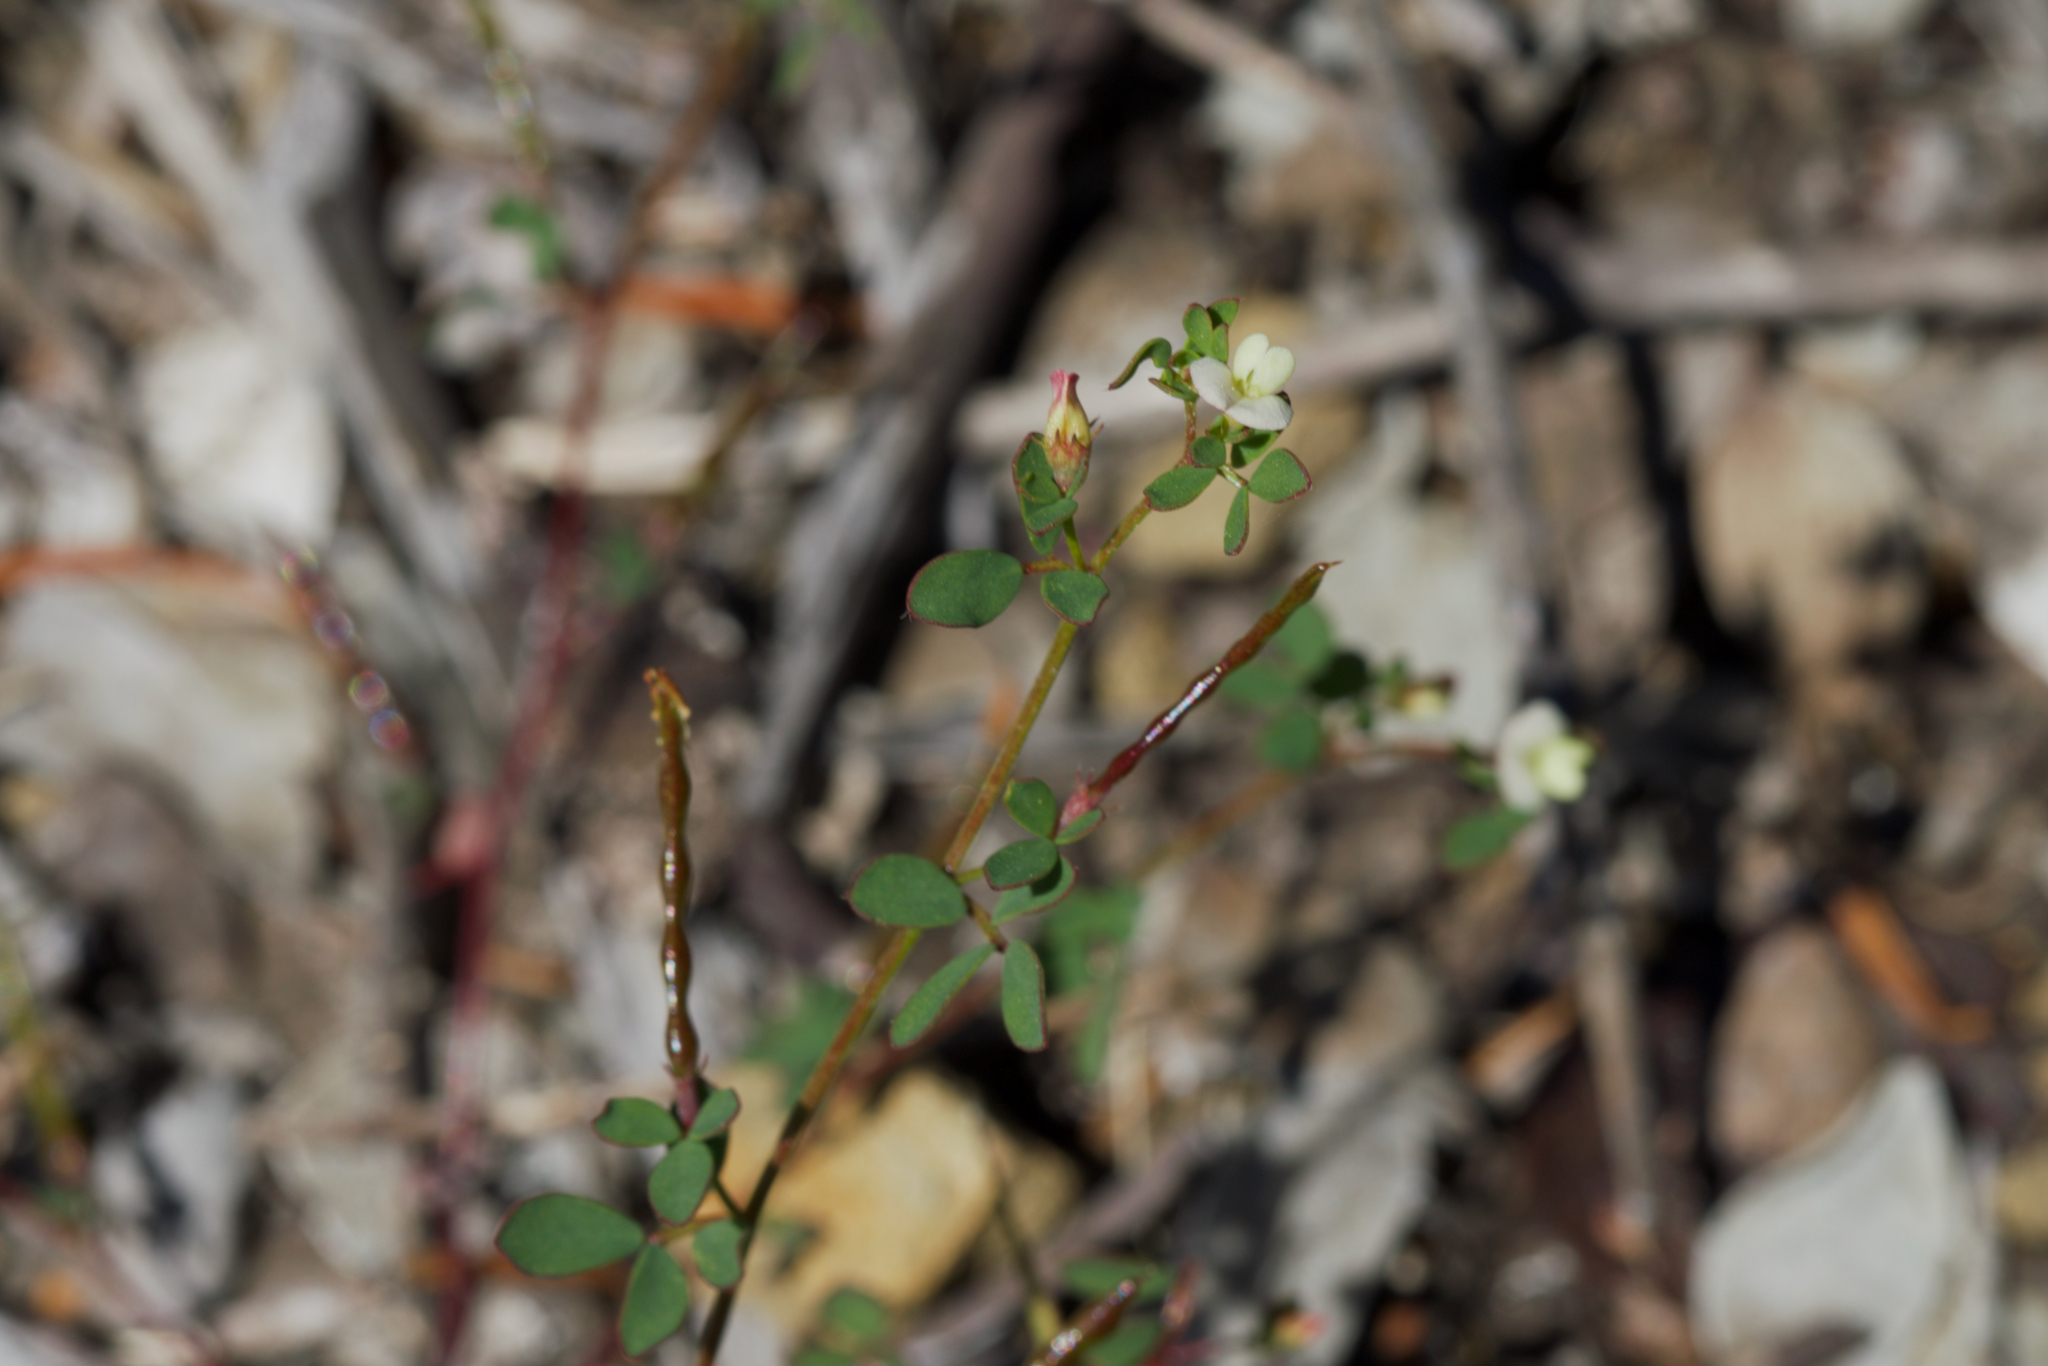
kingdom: Plantae
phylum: Tracheophyta
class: Magnoliopsida
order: Fabales
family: Fabaceae
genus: Acmispon
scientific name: Acmispon parviflorus
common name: Desert deer-vetch
